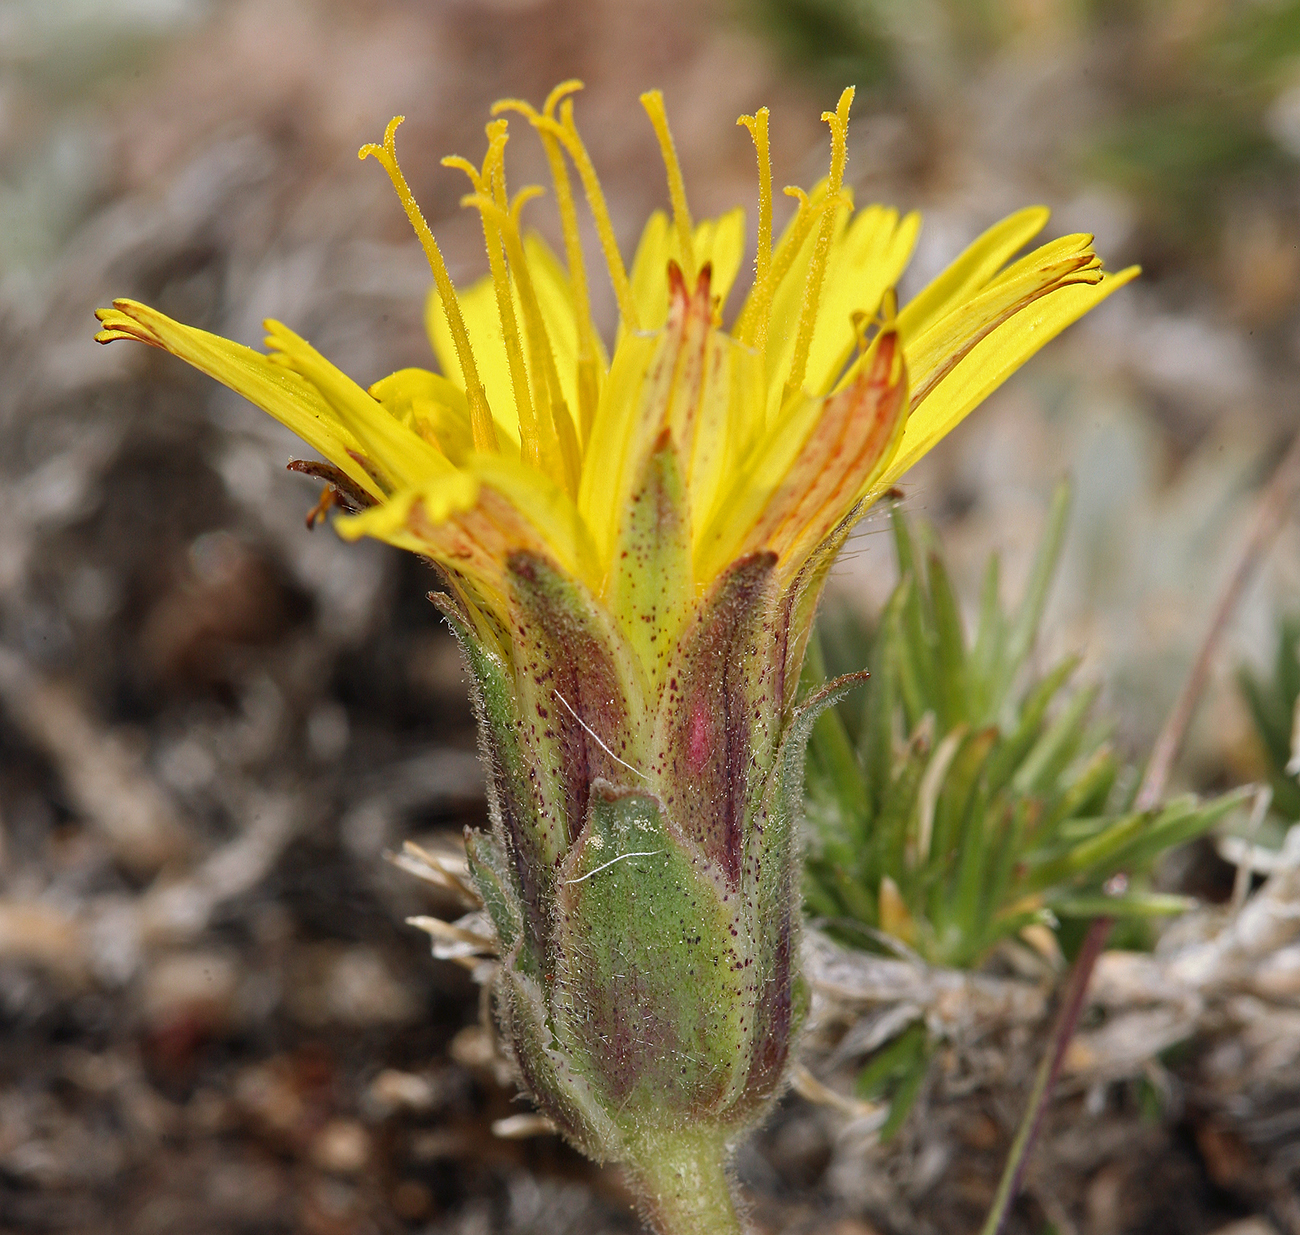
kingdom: Plantae
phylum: Tracheophyta
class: Magnoliopsida
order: Asterales
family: Asteraceae
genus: Agoseris
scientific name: Agoseris monticola
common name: Sierra nevada agoseris
